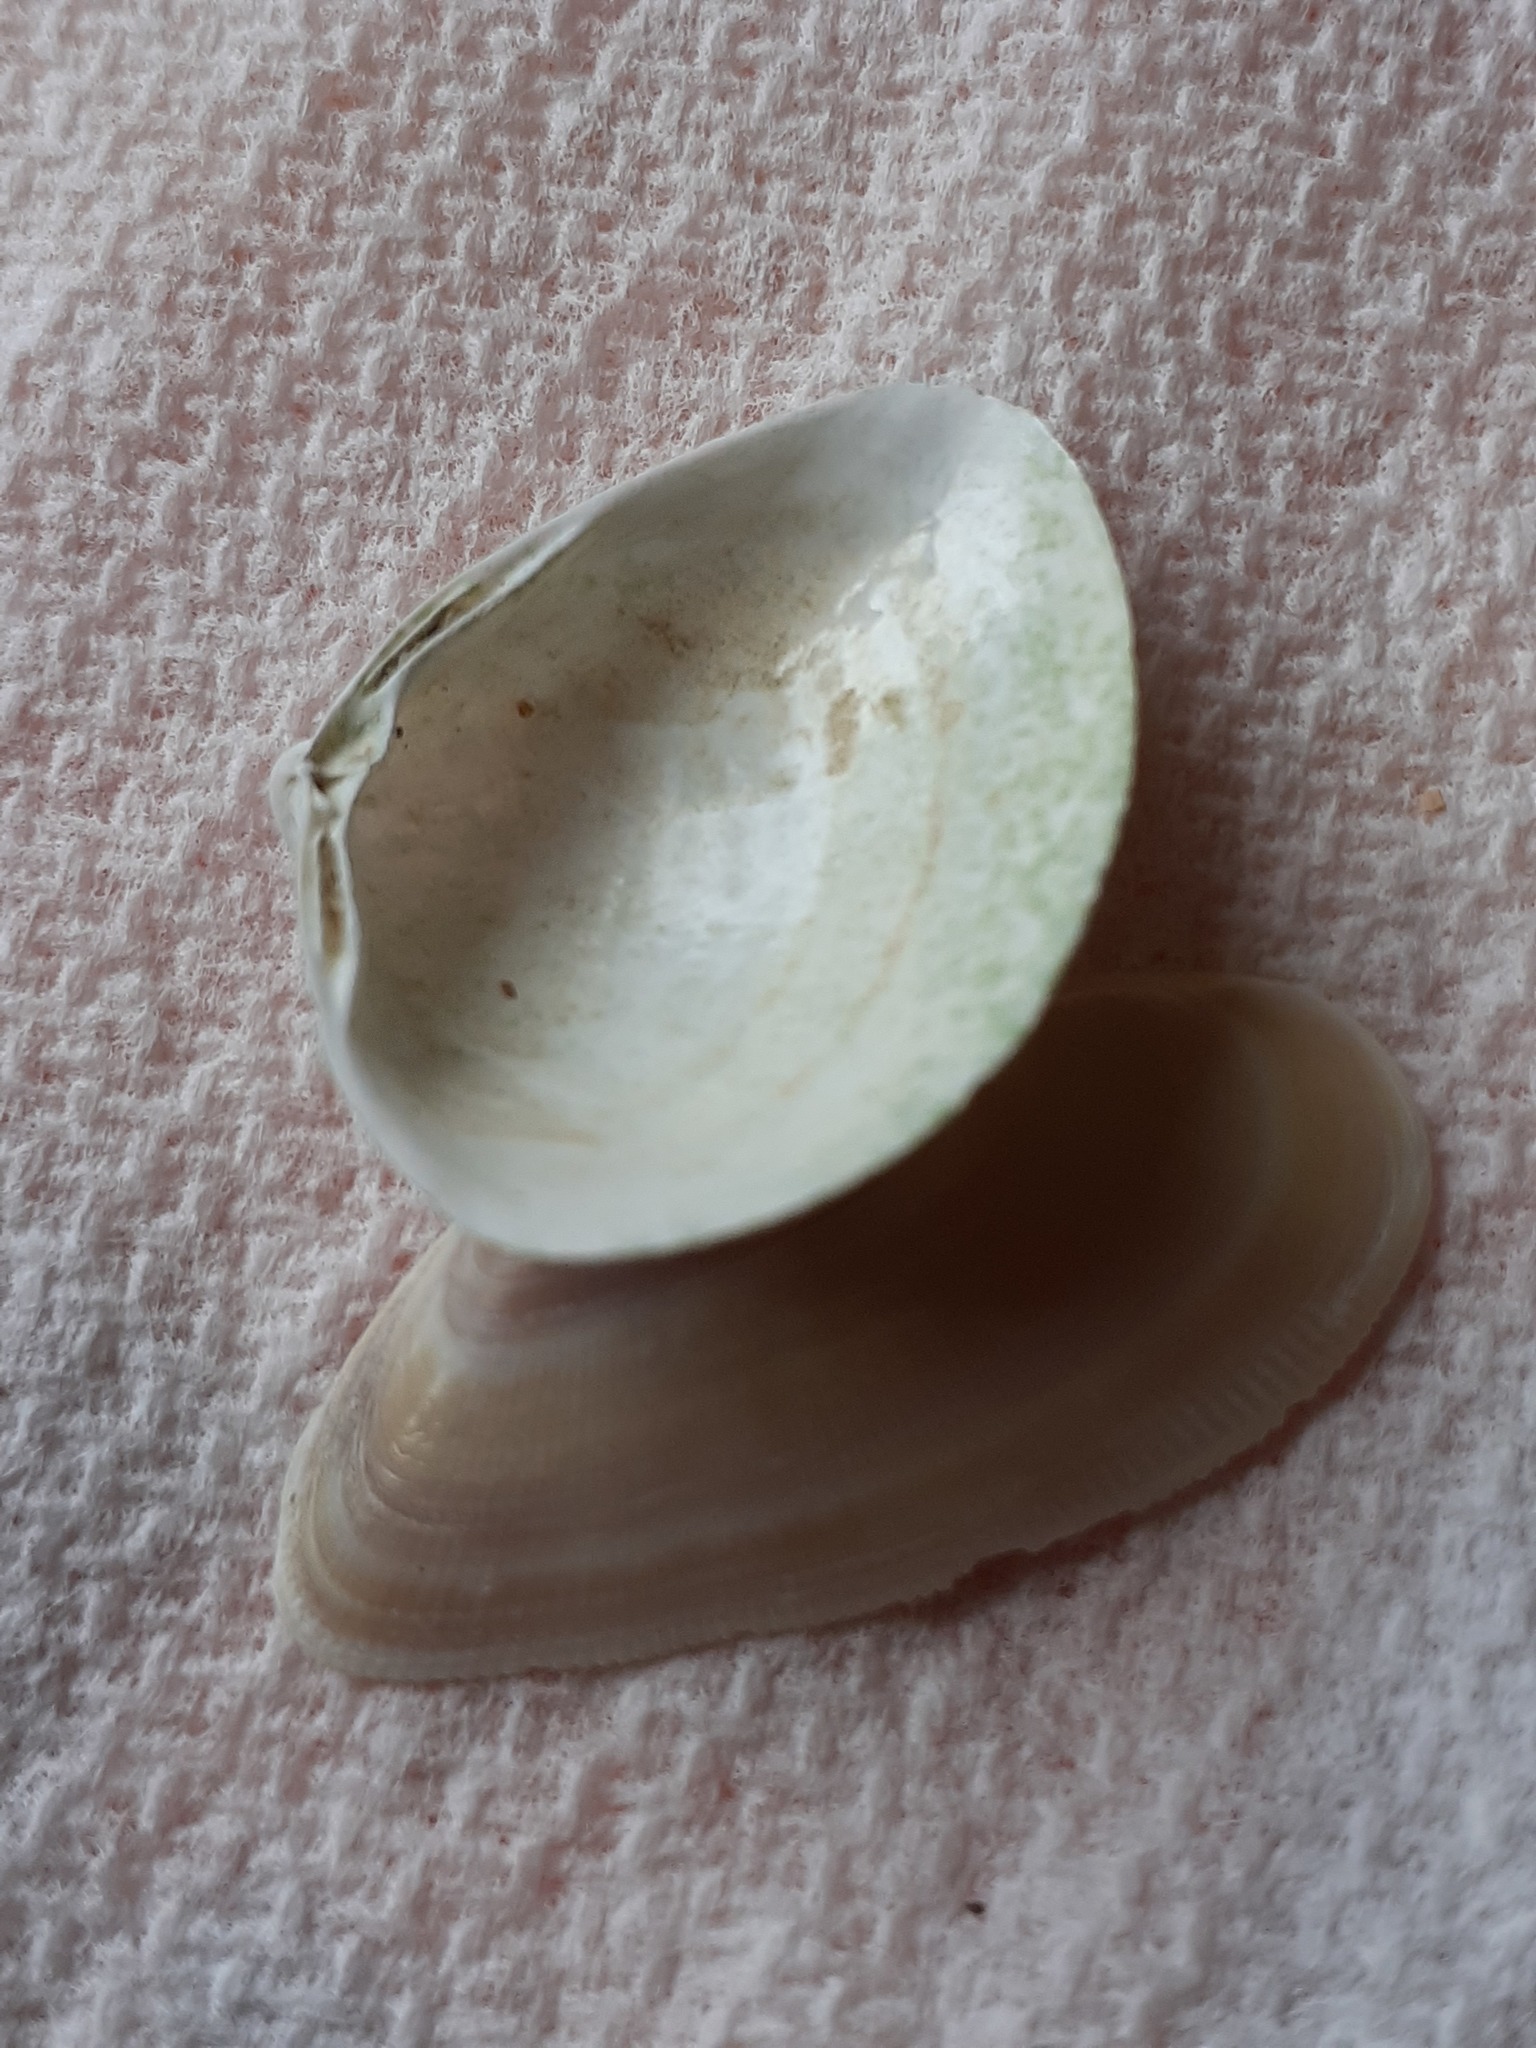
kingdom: Animalia
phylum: Mollusca
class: Bivalvia
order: Venerida
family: Mactridae
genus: Spisula
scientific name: Spisula subtruncata
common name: Cut trough shell
